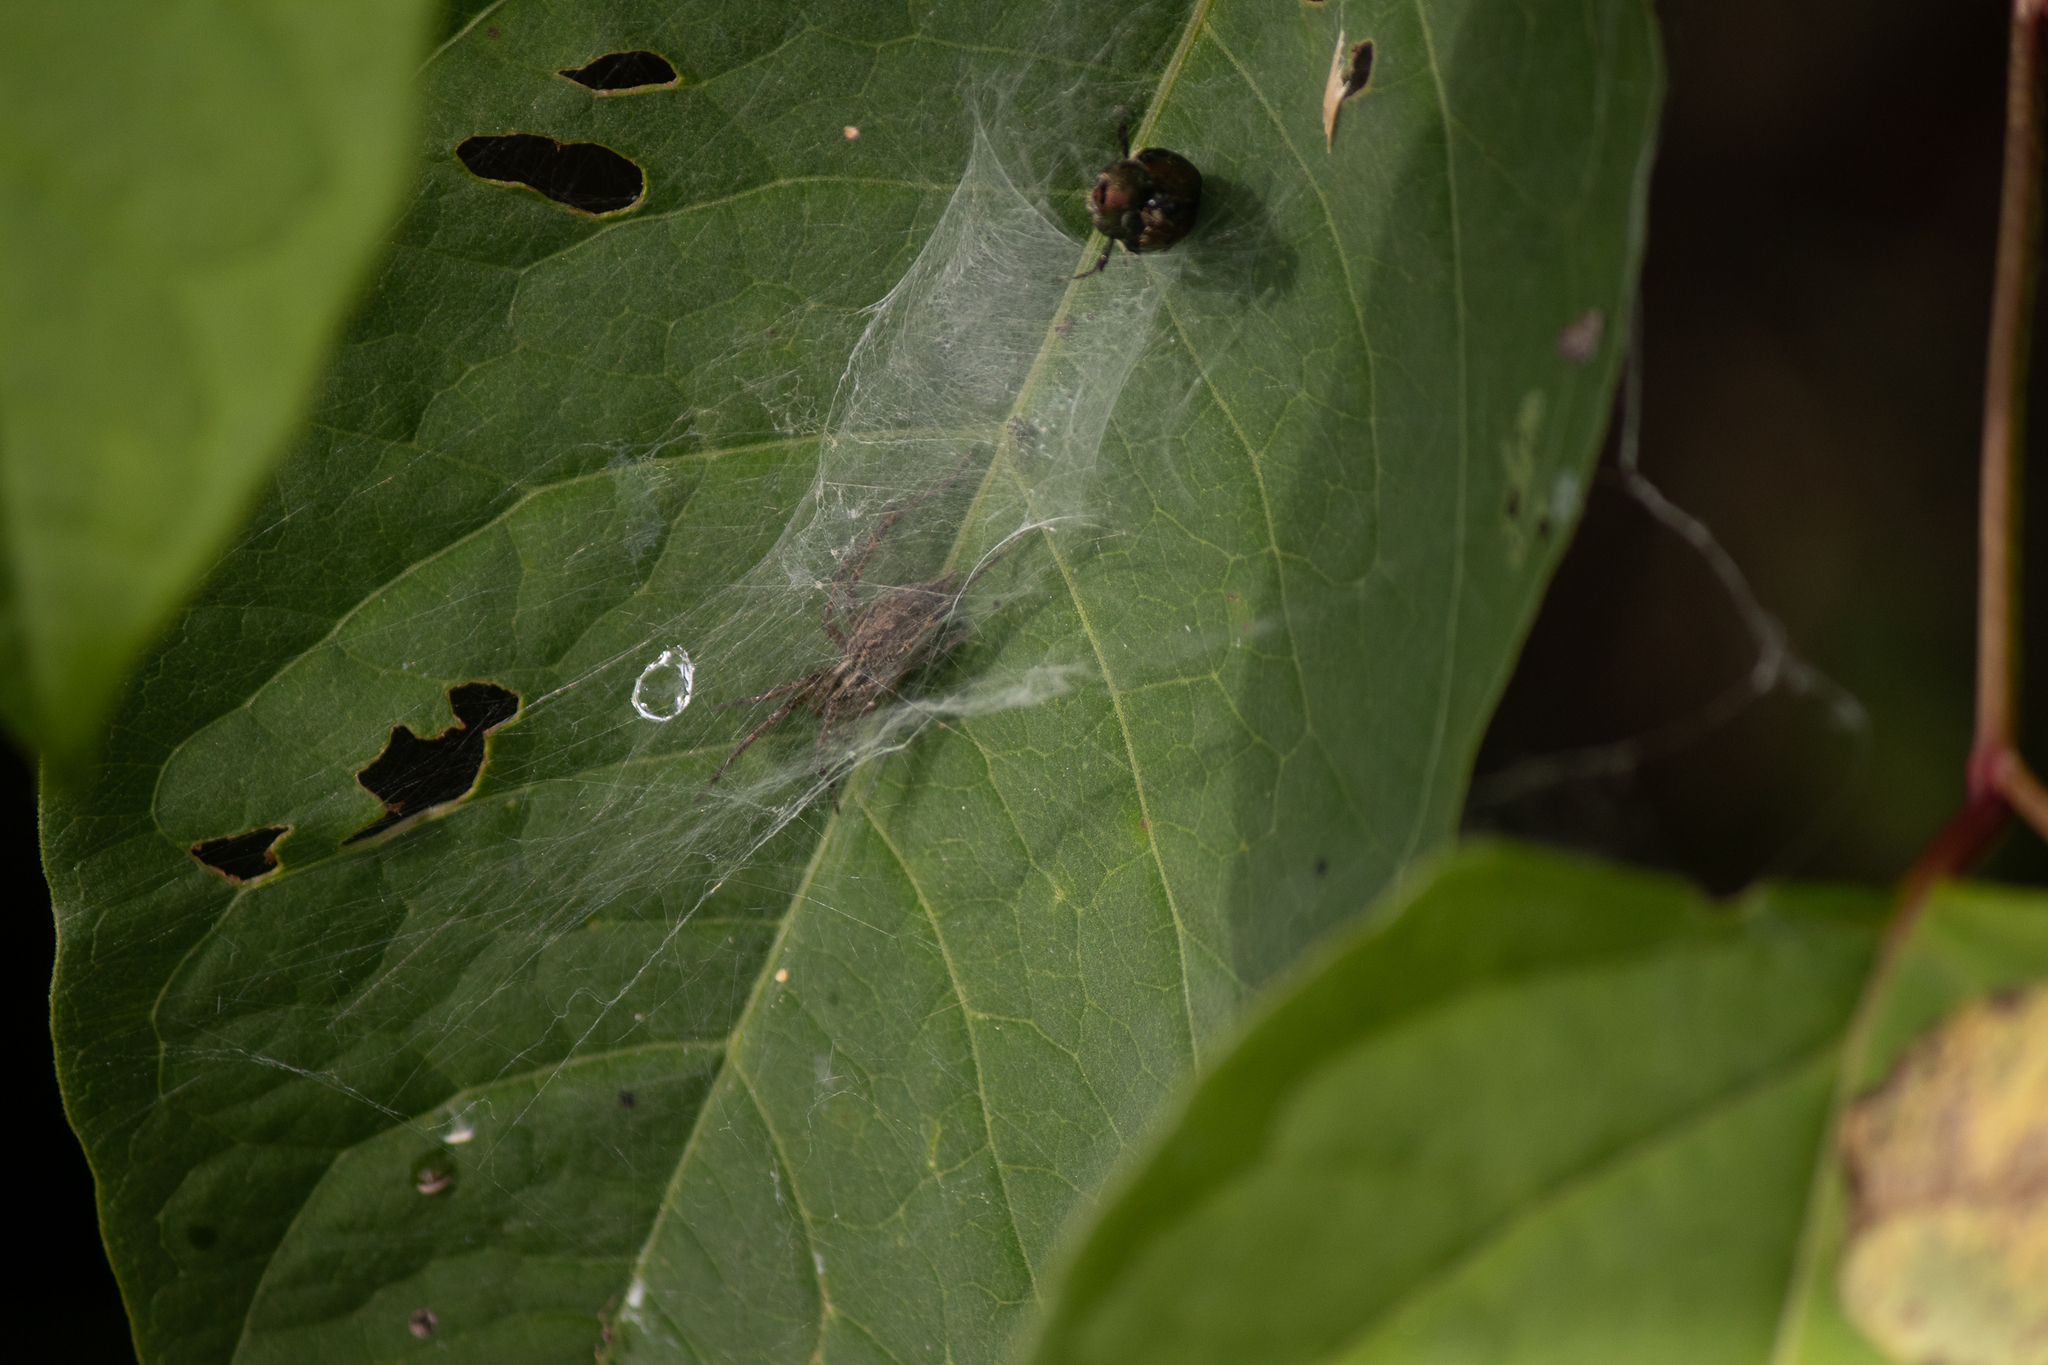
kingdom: Animalia
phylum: Arthropoda
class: Arachnida
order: Araneae
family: Agelenidae
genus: Agelenopsis
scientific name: Agelenopsis
